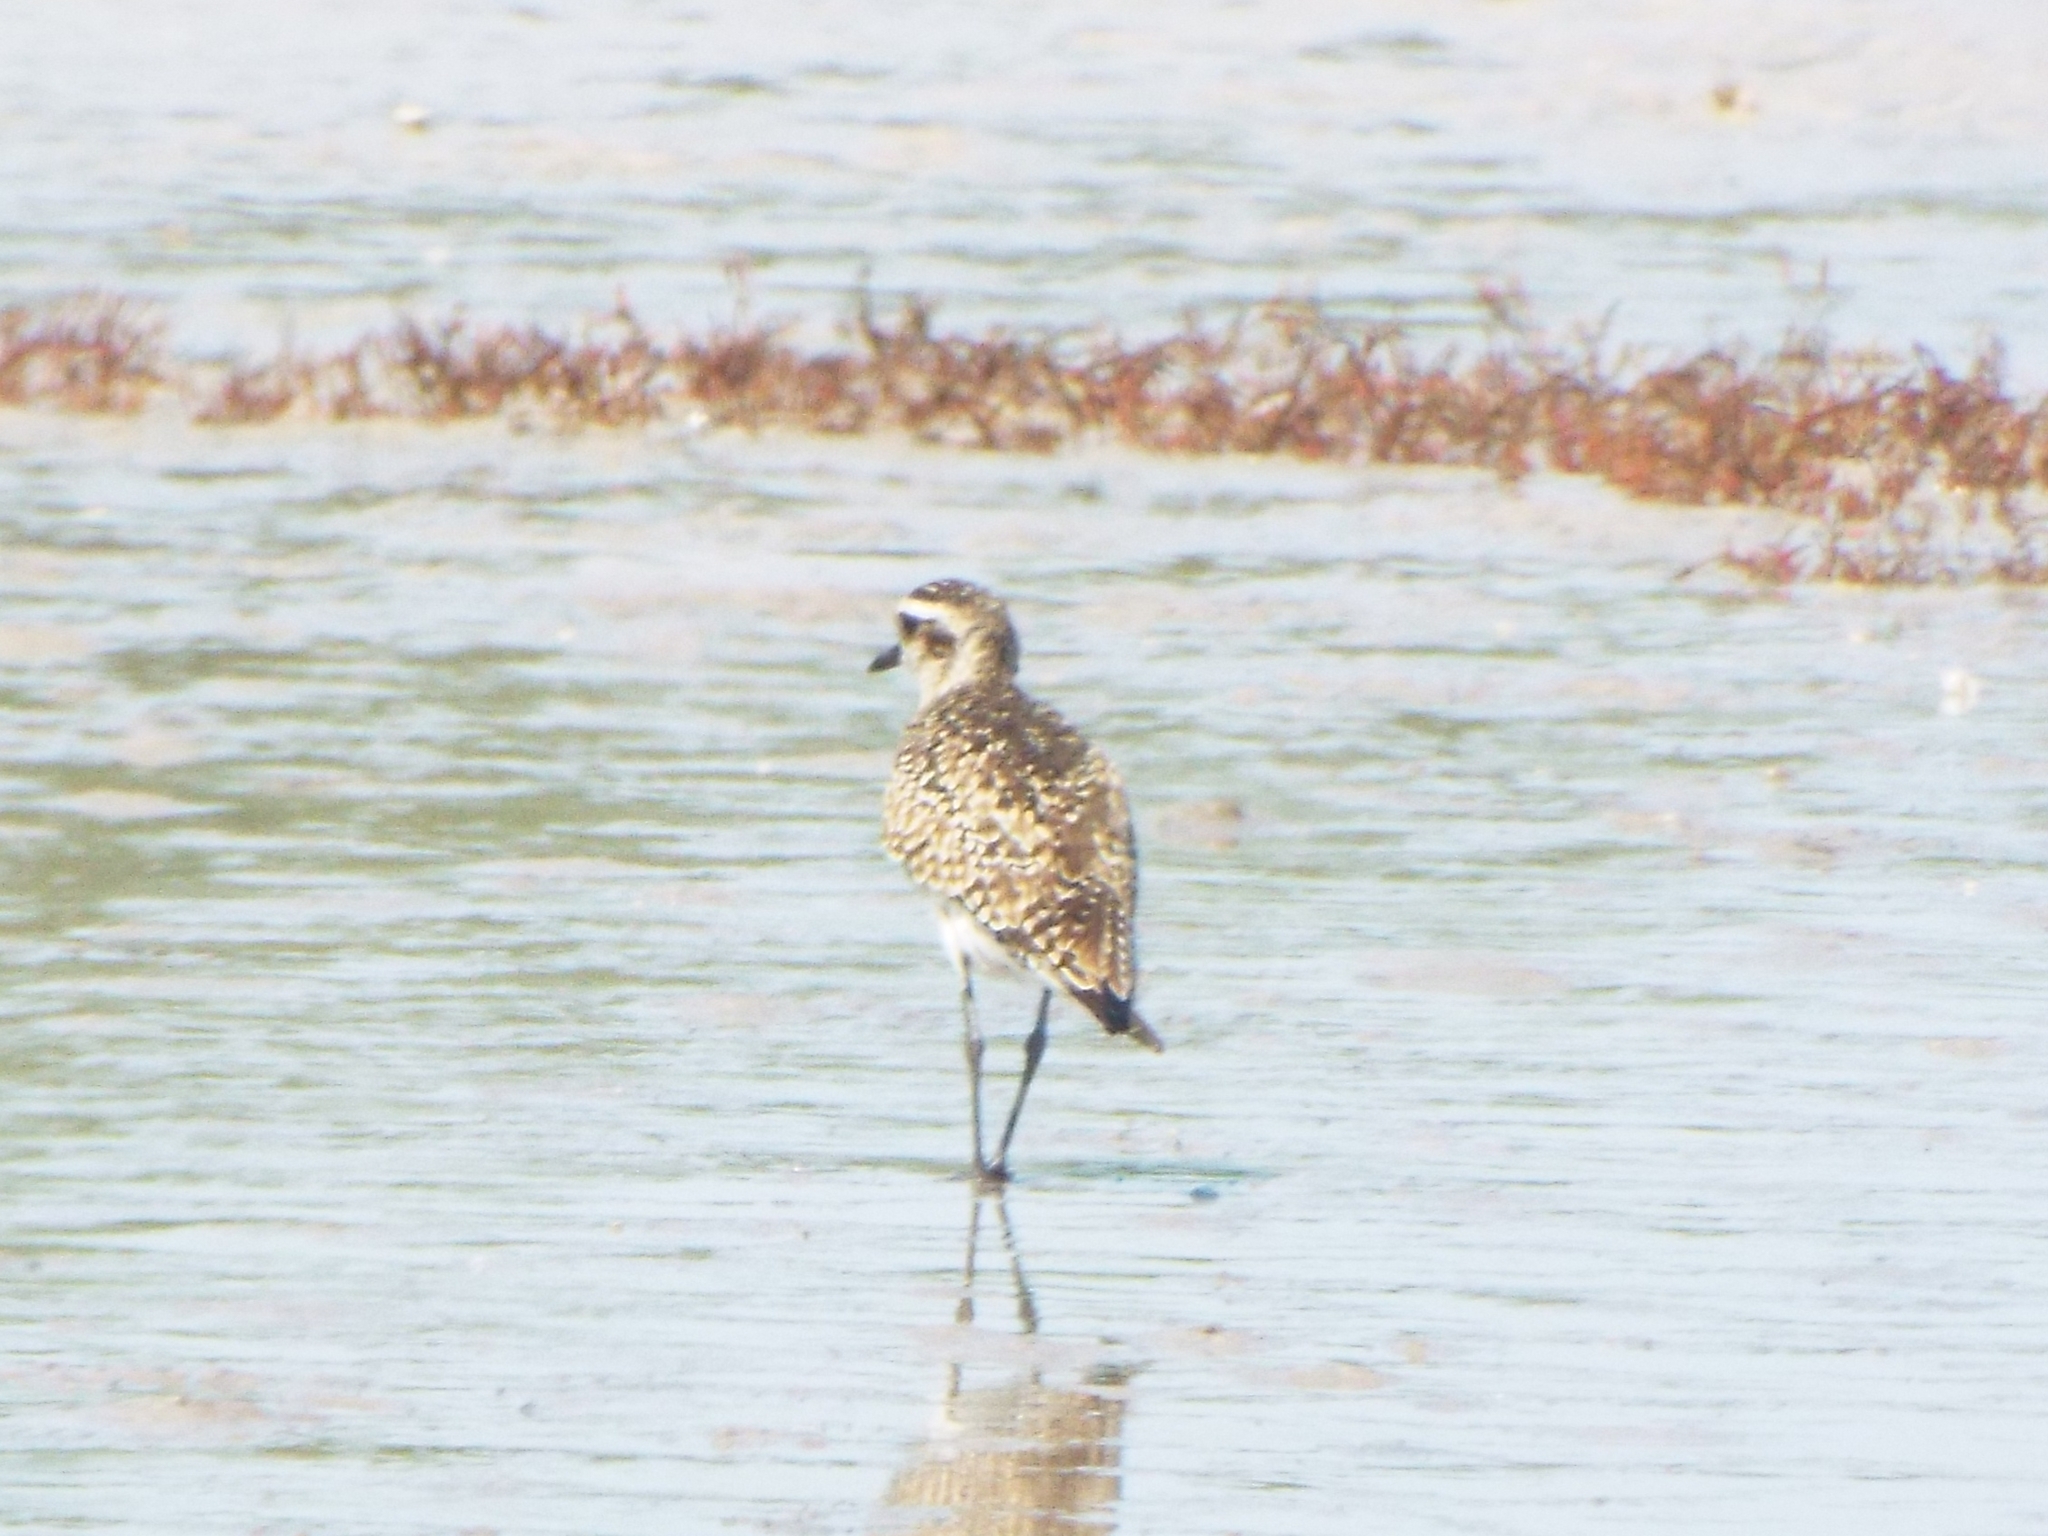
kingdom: Animalia
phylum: Chordata
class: Aves
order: Charadriiformes
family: Charadriidae
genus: Pluvialis
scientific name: Pluvialis dominica
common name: American golden plover
